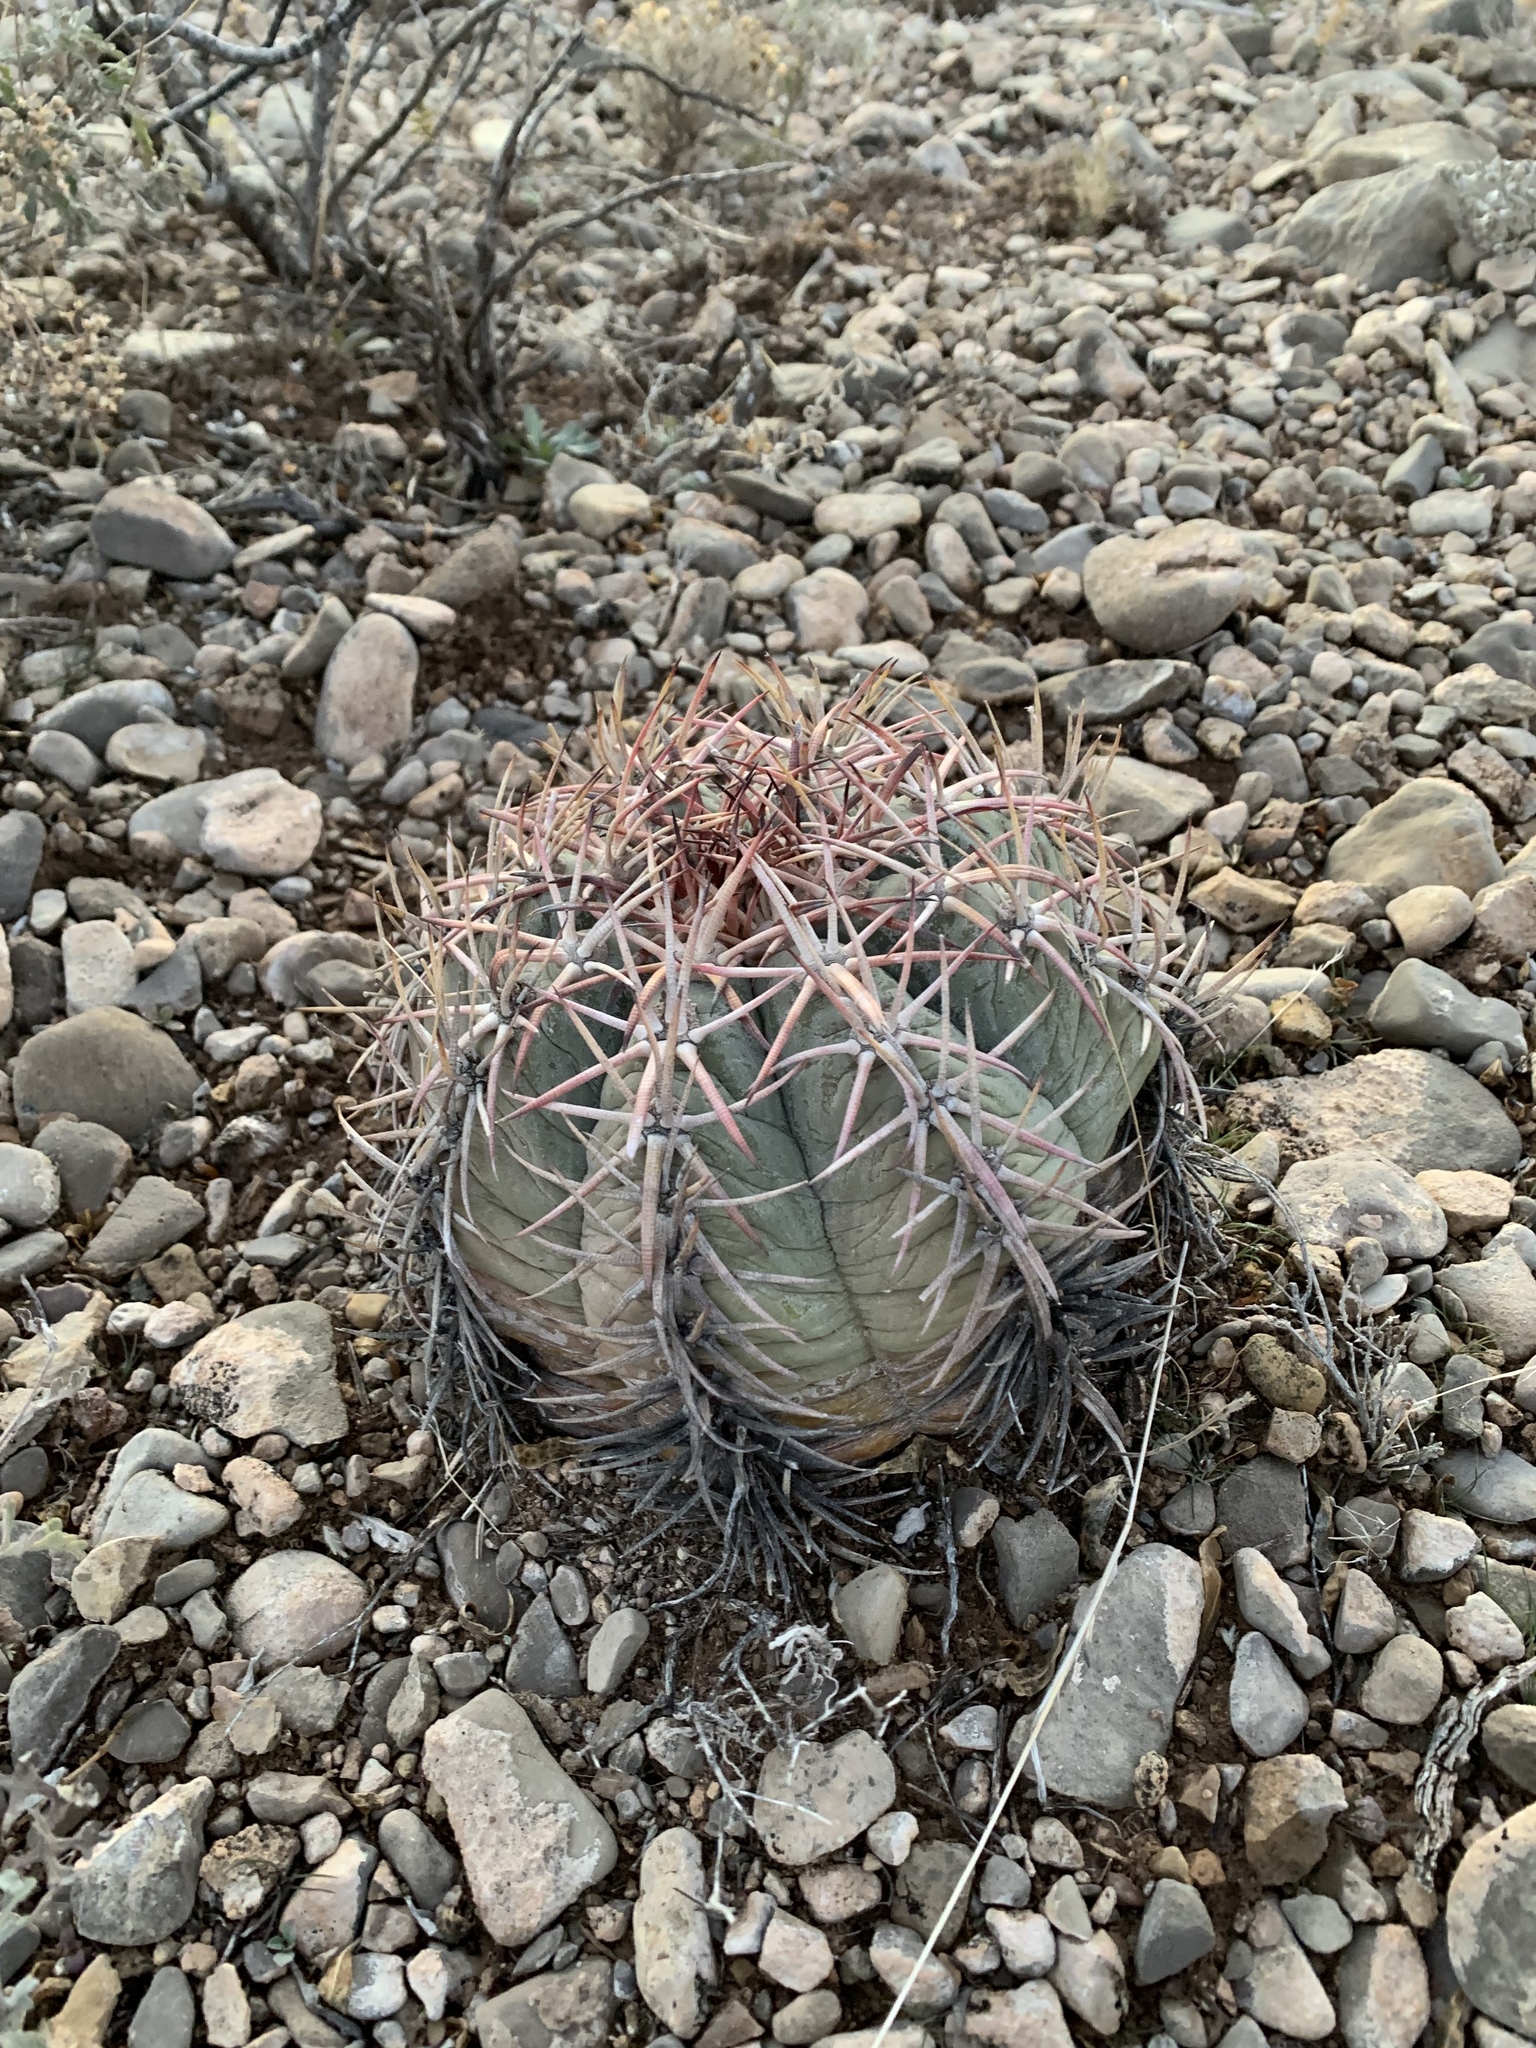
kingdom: Plantae
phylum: Tracheophyta
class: Magnoliopsida
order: Caryophyllales
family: Cactaceae
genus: Echinocactus
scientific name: Echinocactus horizonthalonius
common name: Devilshead
